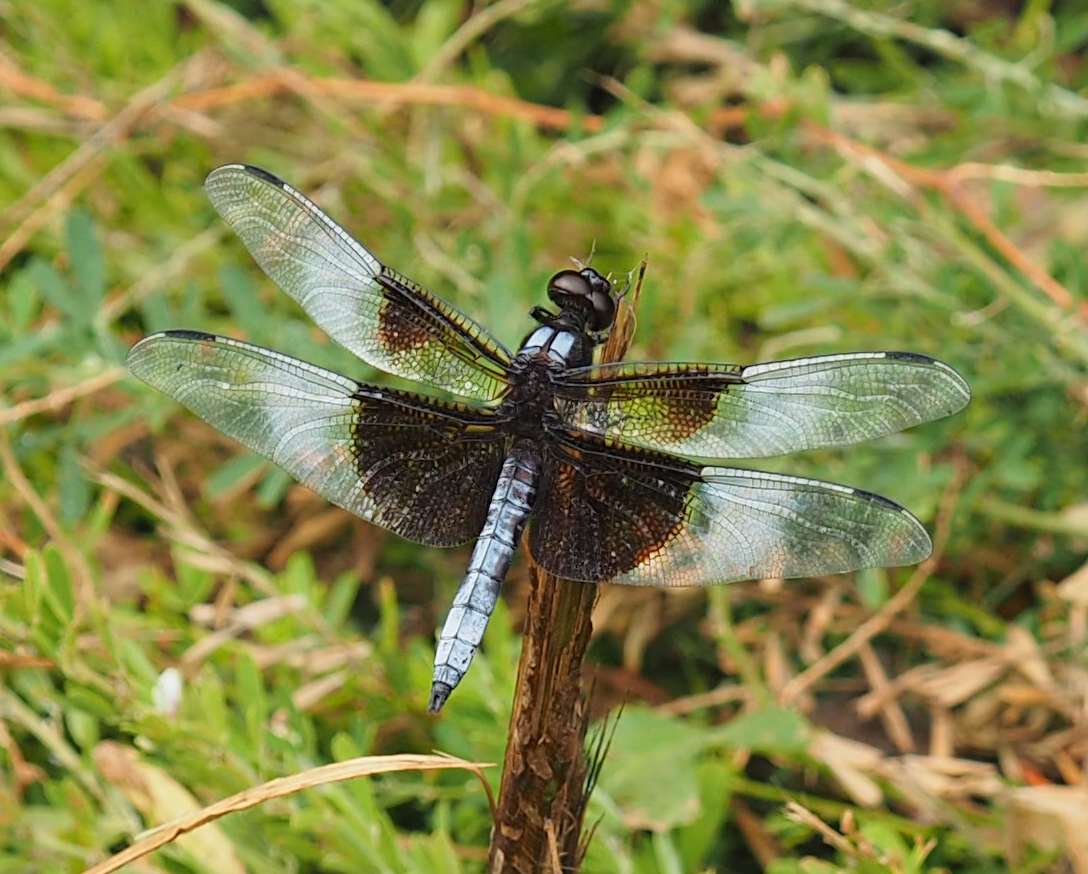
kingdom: Animalia
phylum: Arthropoda
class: Insecta
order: Odonata
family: Libellulidae
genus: Libellula
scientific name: Libellula luctuosa
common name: Widow skimmer
